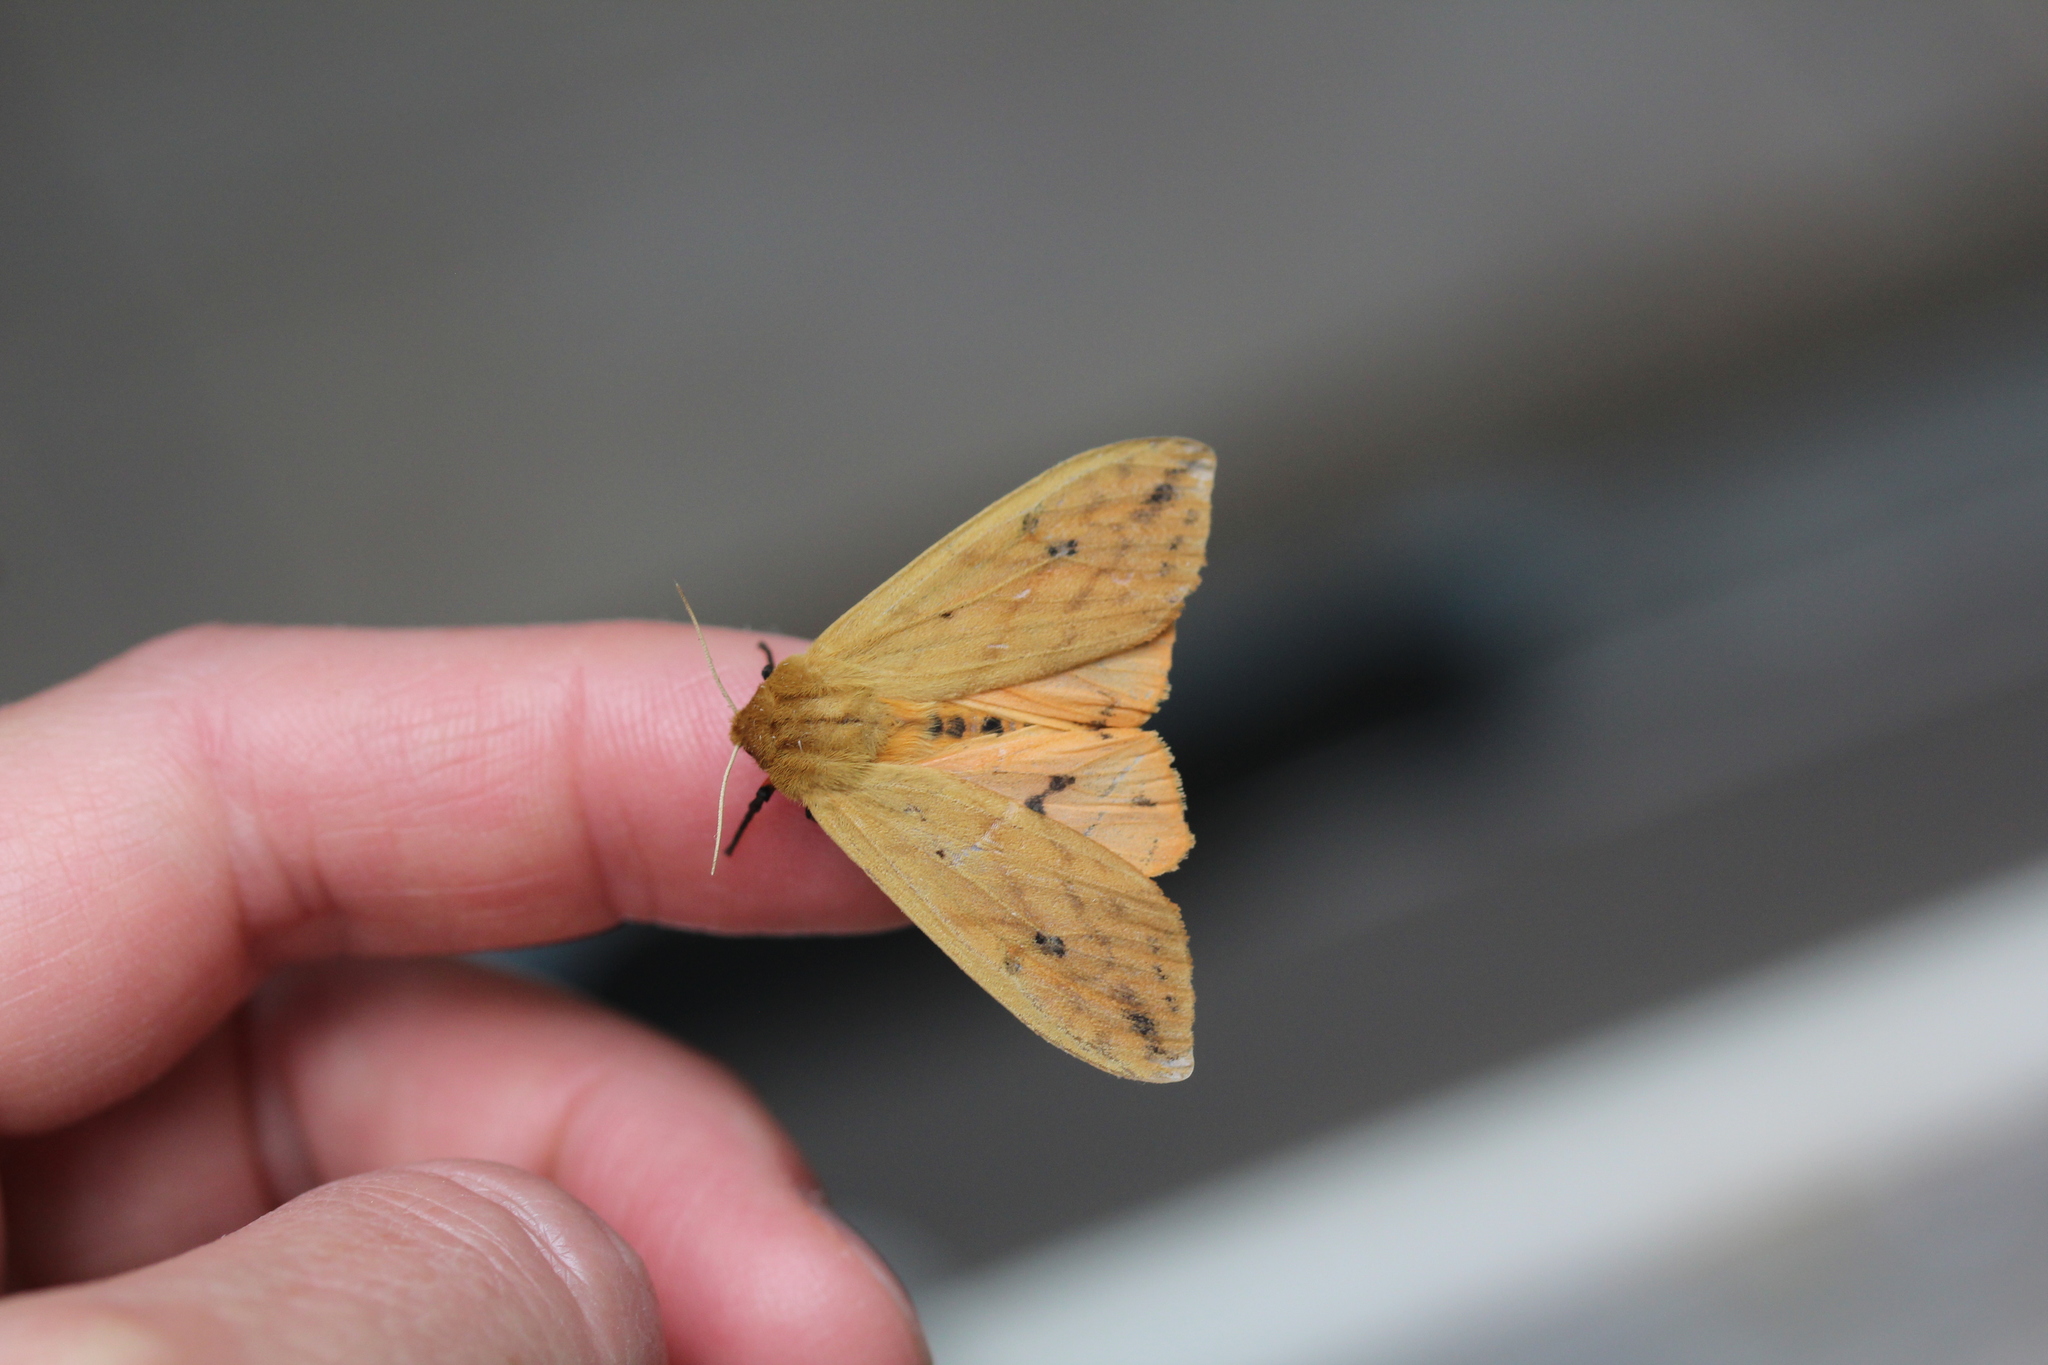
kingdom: Animalia
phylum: Arthropoda
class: Insecta
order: Lepidoptera
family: Erebidae
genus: Pyrrharctia
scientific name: Pyrrharctia isabella
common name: Isabella tiger moth
